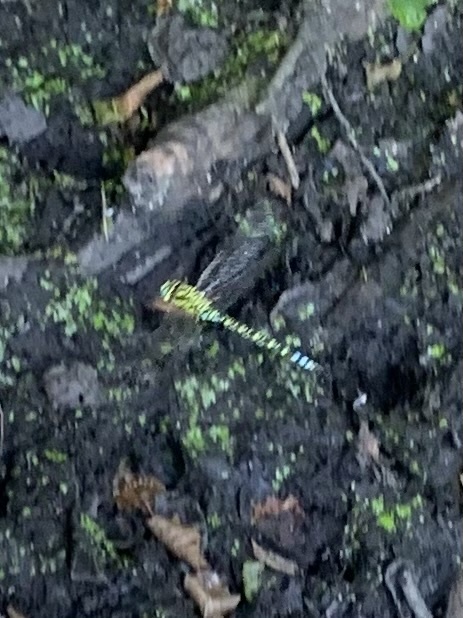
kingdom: Animalia
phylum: Arthropoda
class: Insecta
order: Odonata
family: Aeshnidae
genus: Aeshna
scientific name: Aeshna cyanea
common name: Southern hawker
